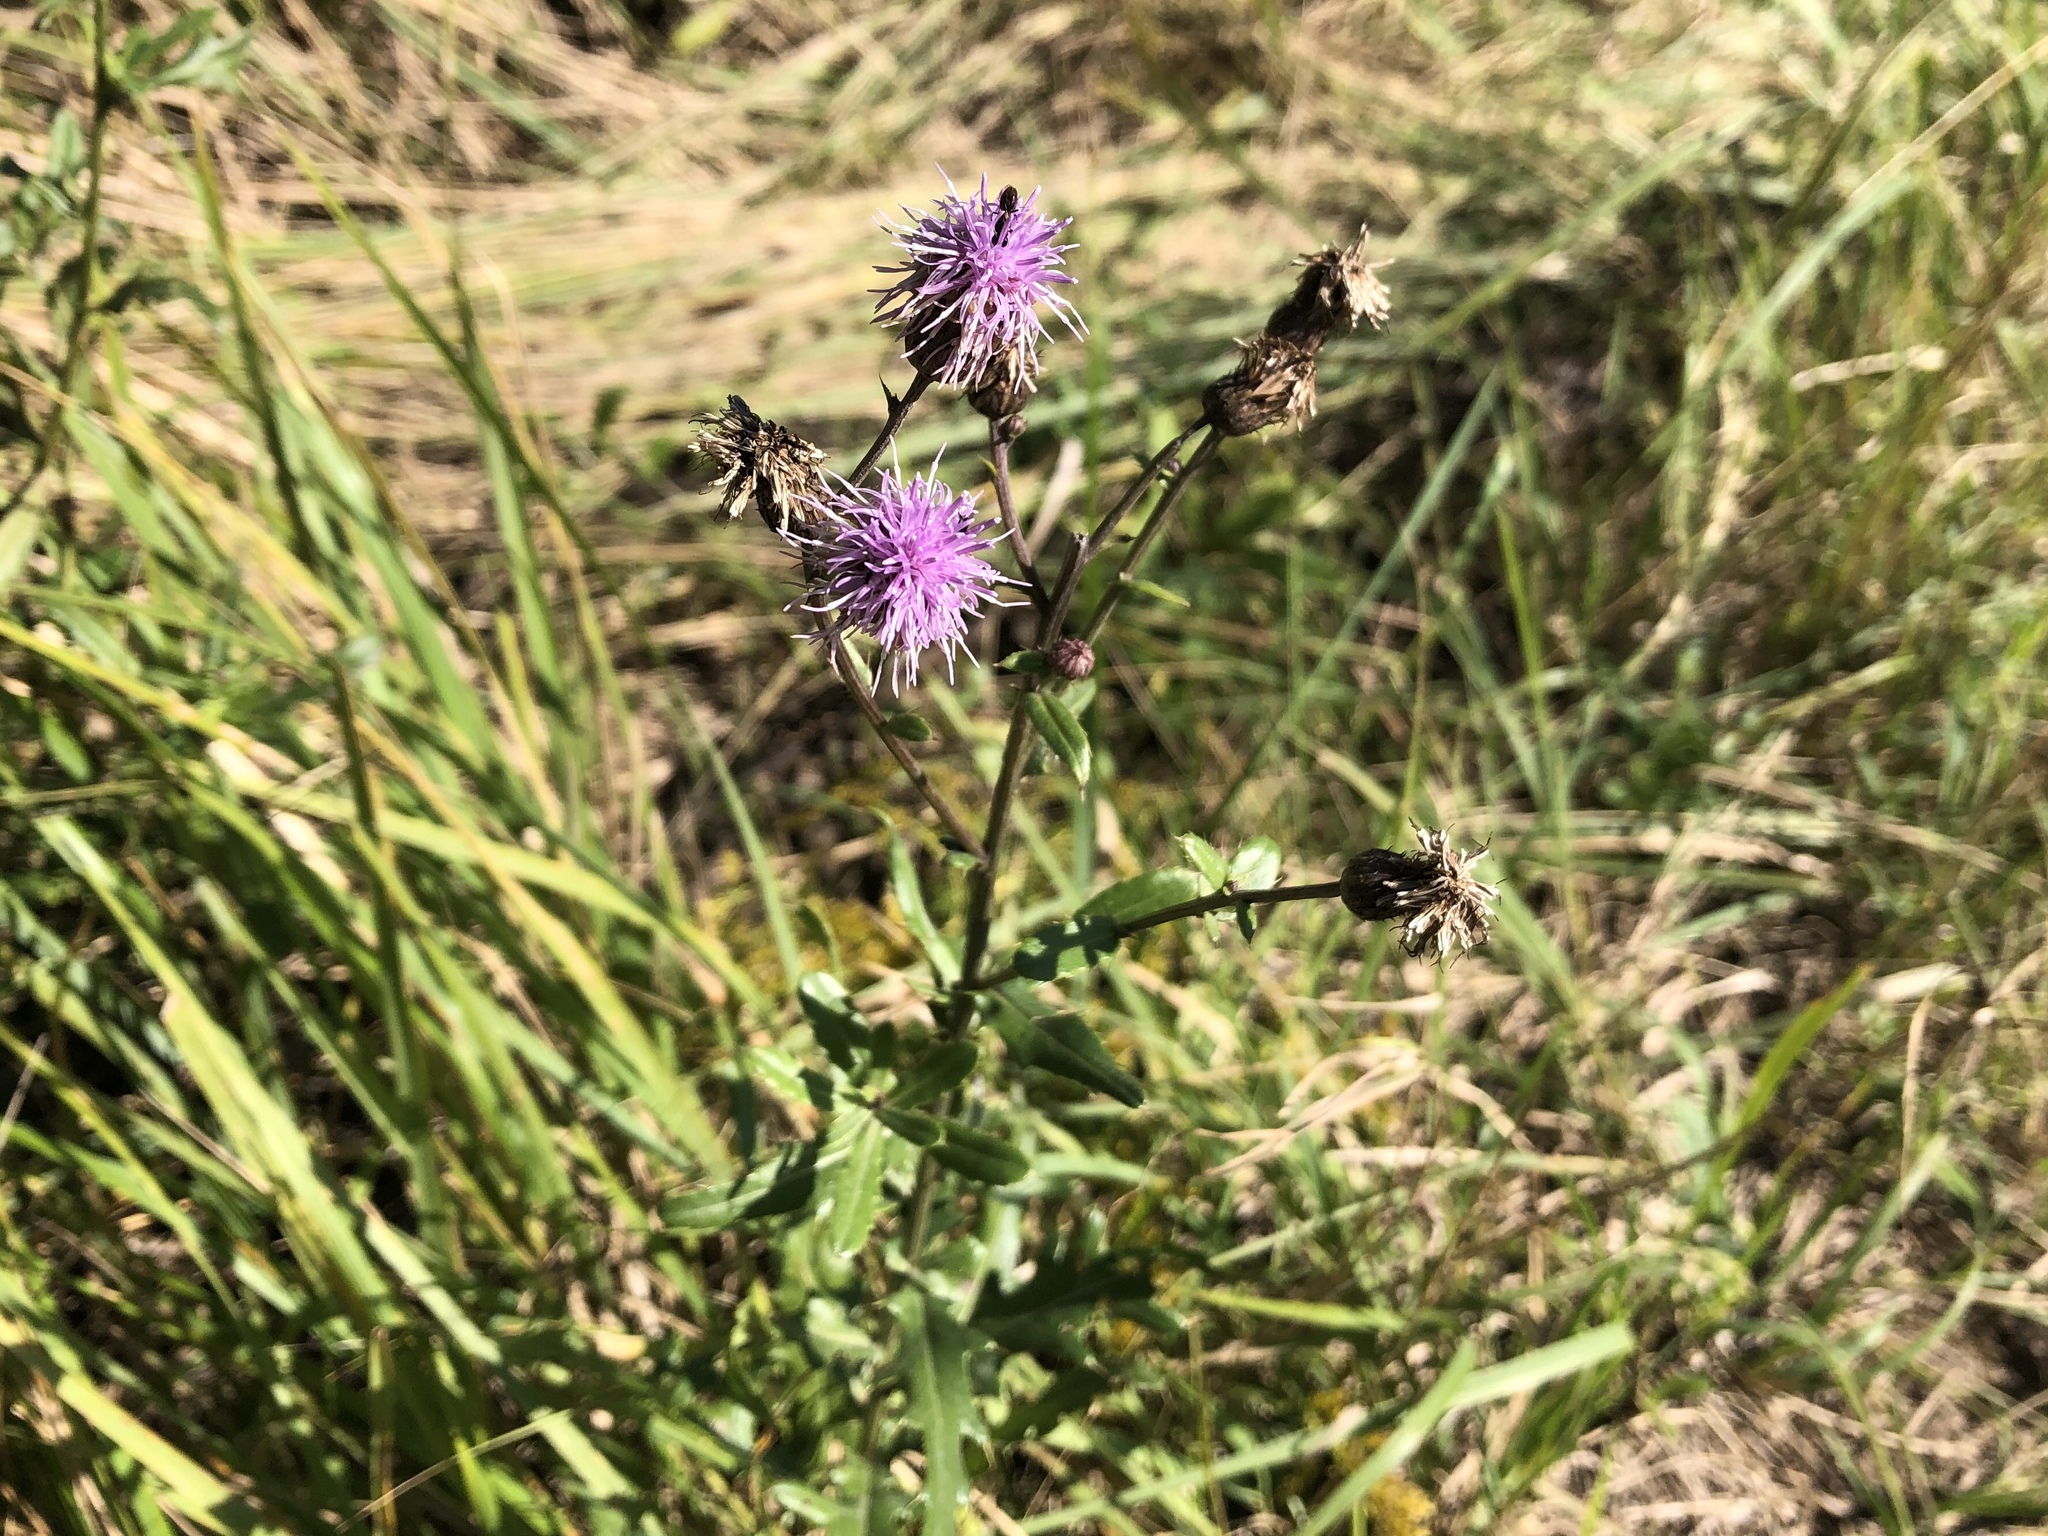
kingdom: Plantae
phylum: Tracheophyta
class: Magnoliopsida
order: Asterales
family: Asteraceae
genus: Cirsium
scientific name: Cirsium arvense
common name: Creeping thistle
